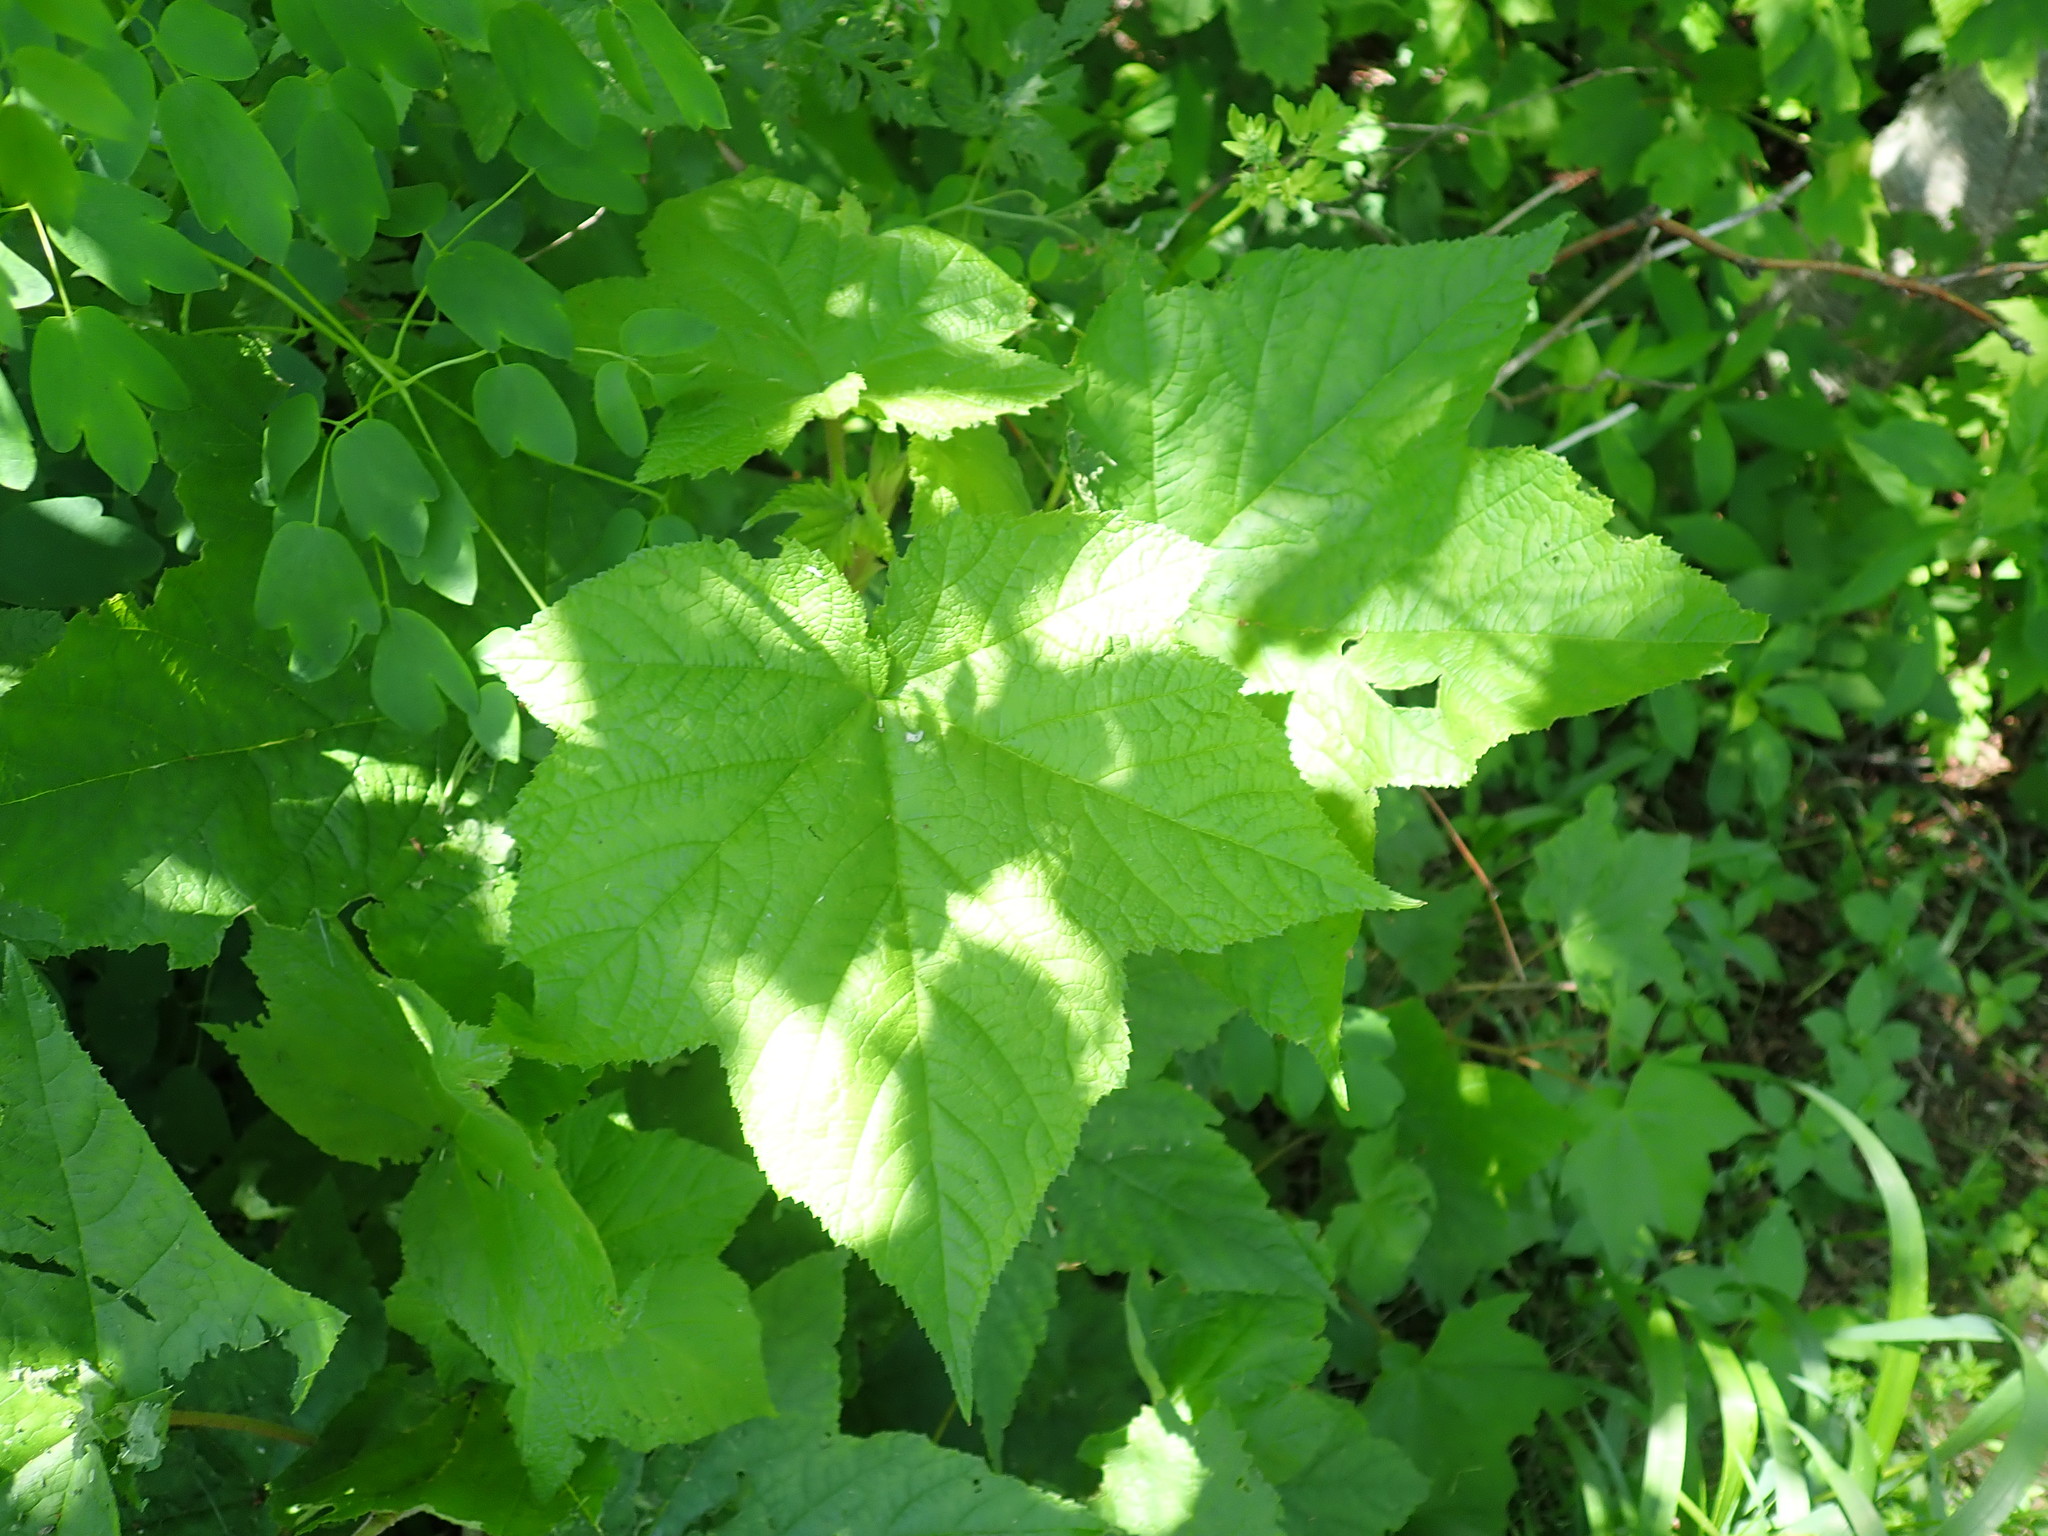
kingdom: Plantae
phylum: Tracheophyta
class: Magnoliopsida
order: Rosales
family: Rosaceae
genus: Rubus
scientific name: Rubus odoratus
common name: Purple-flowered raspberry
